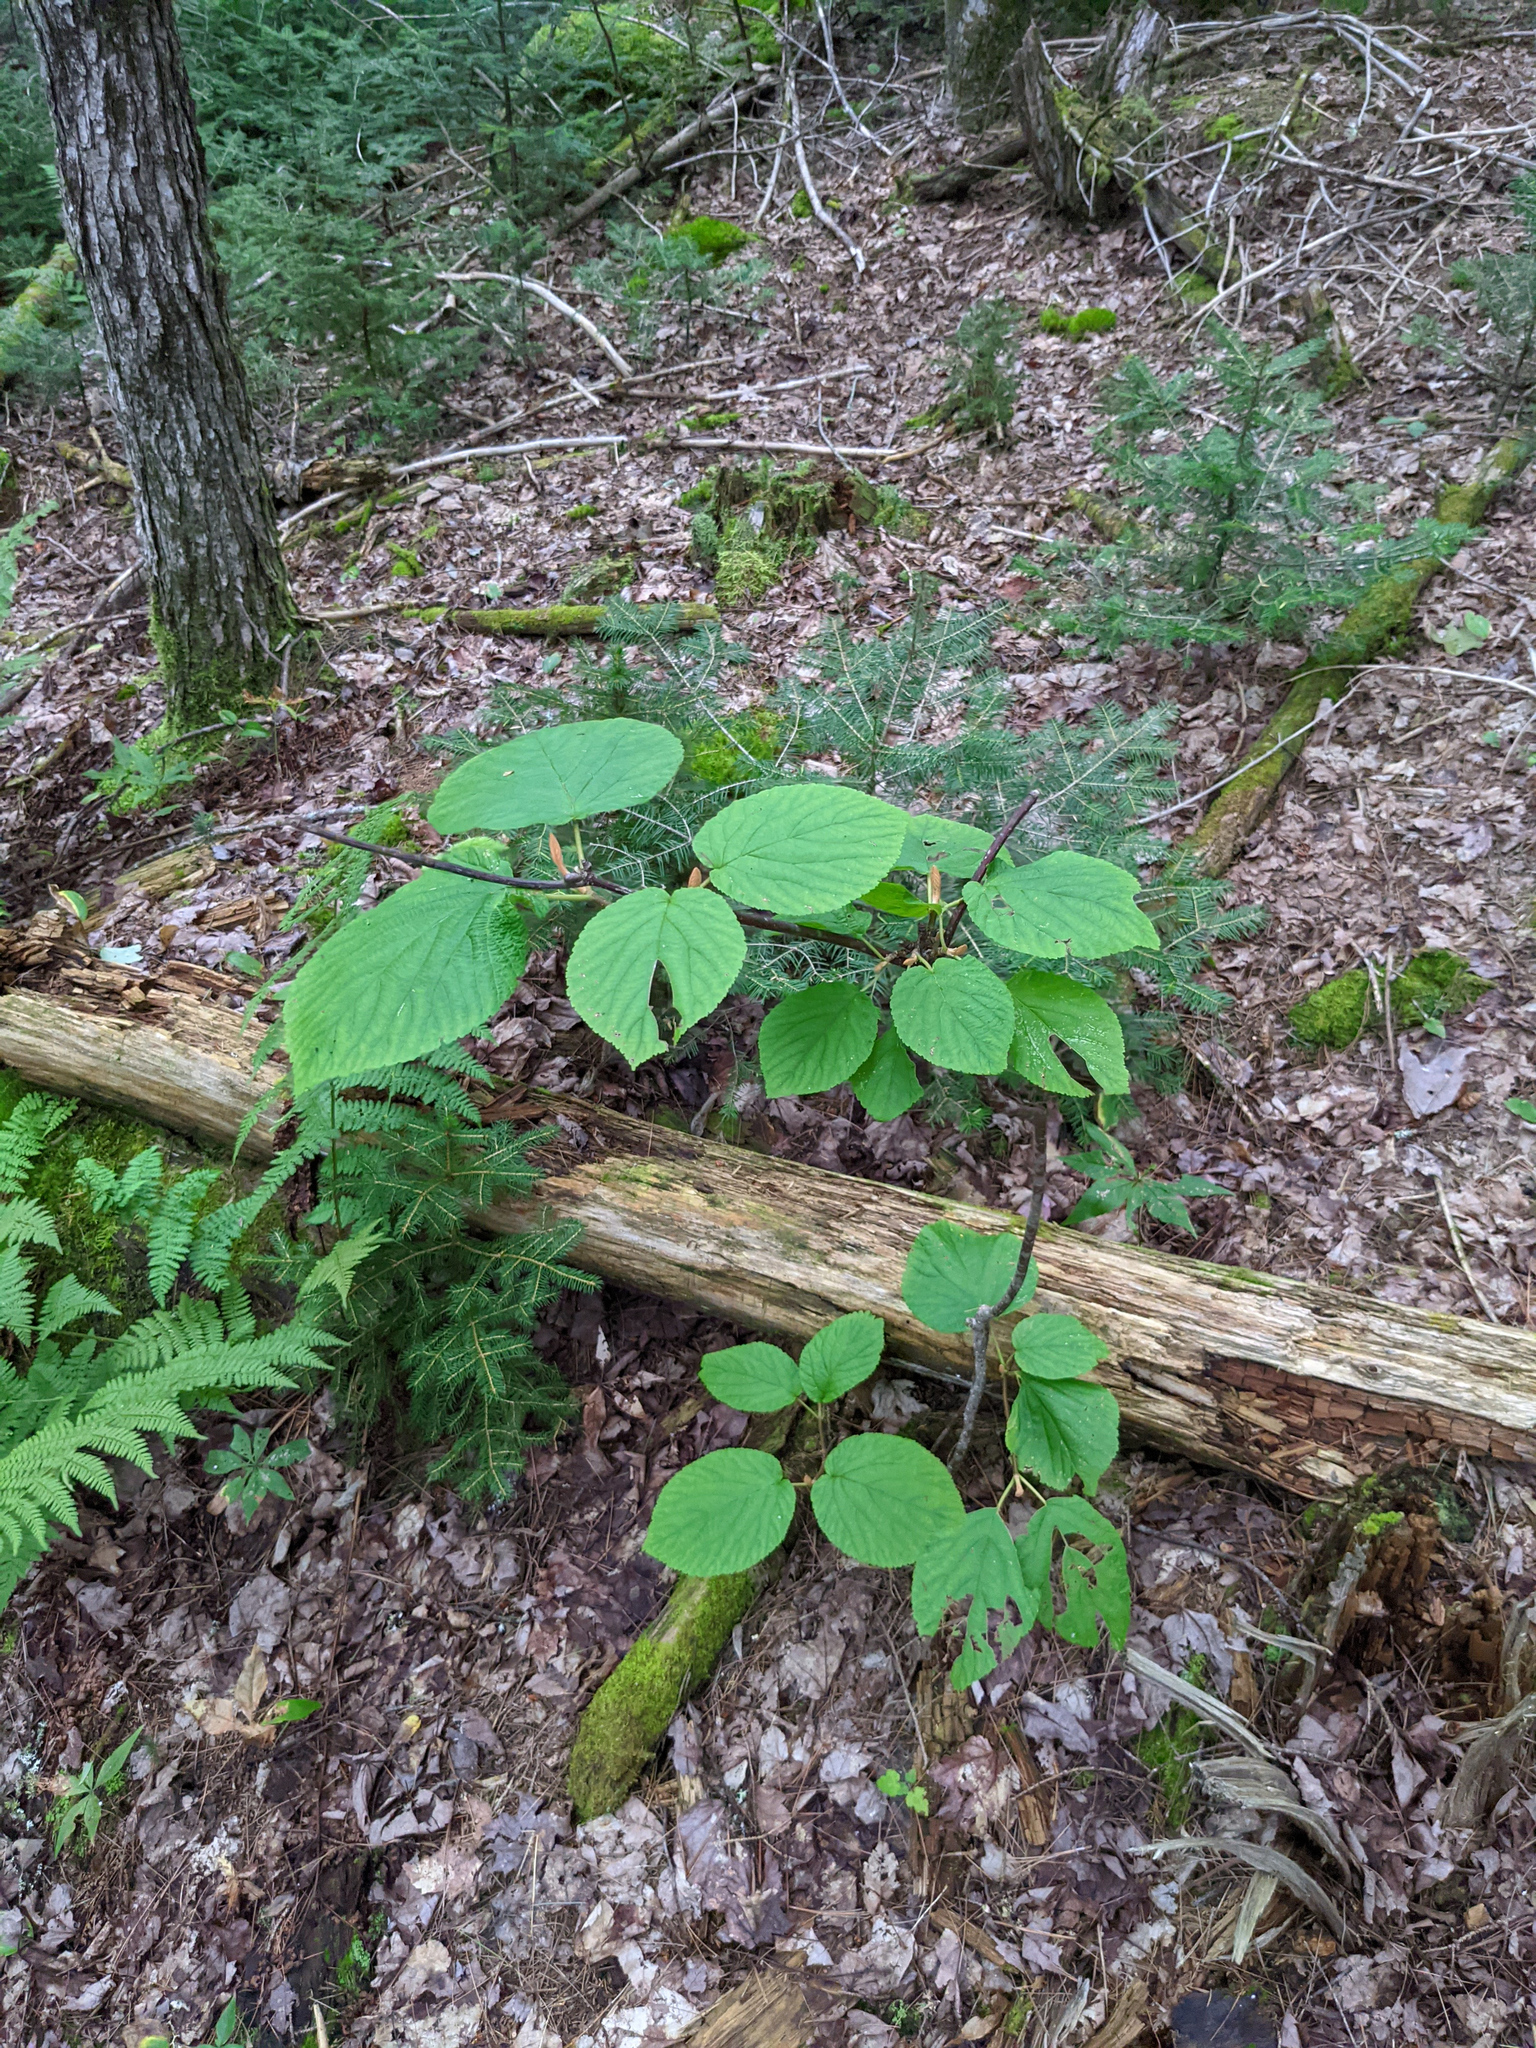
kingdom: Plantae
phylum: Tracheophyta
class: Magnoliopsida
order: Dipsacales
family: Viburnaceae
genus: Viburnum
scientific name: Viburnum lantanoides
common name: Hobblebush
